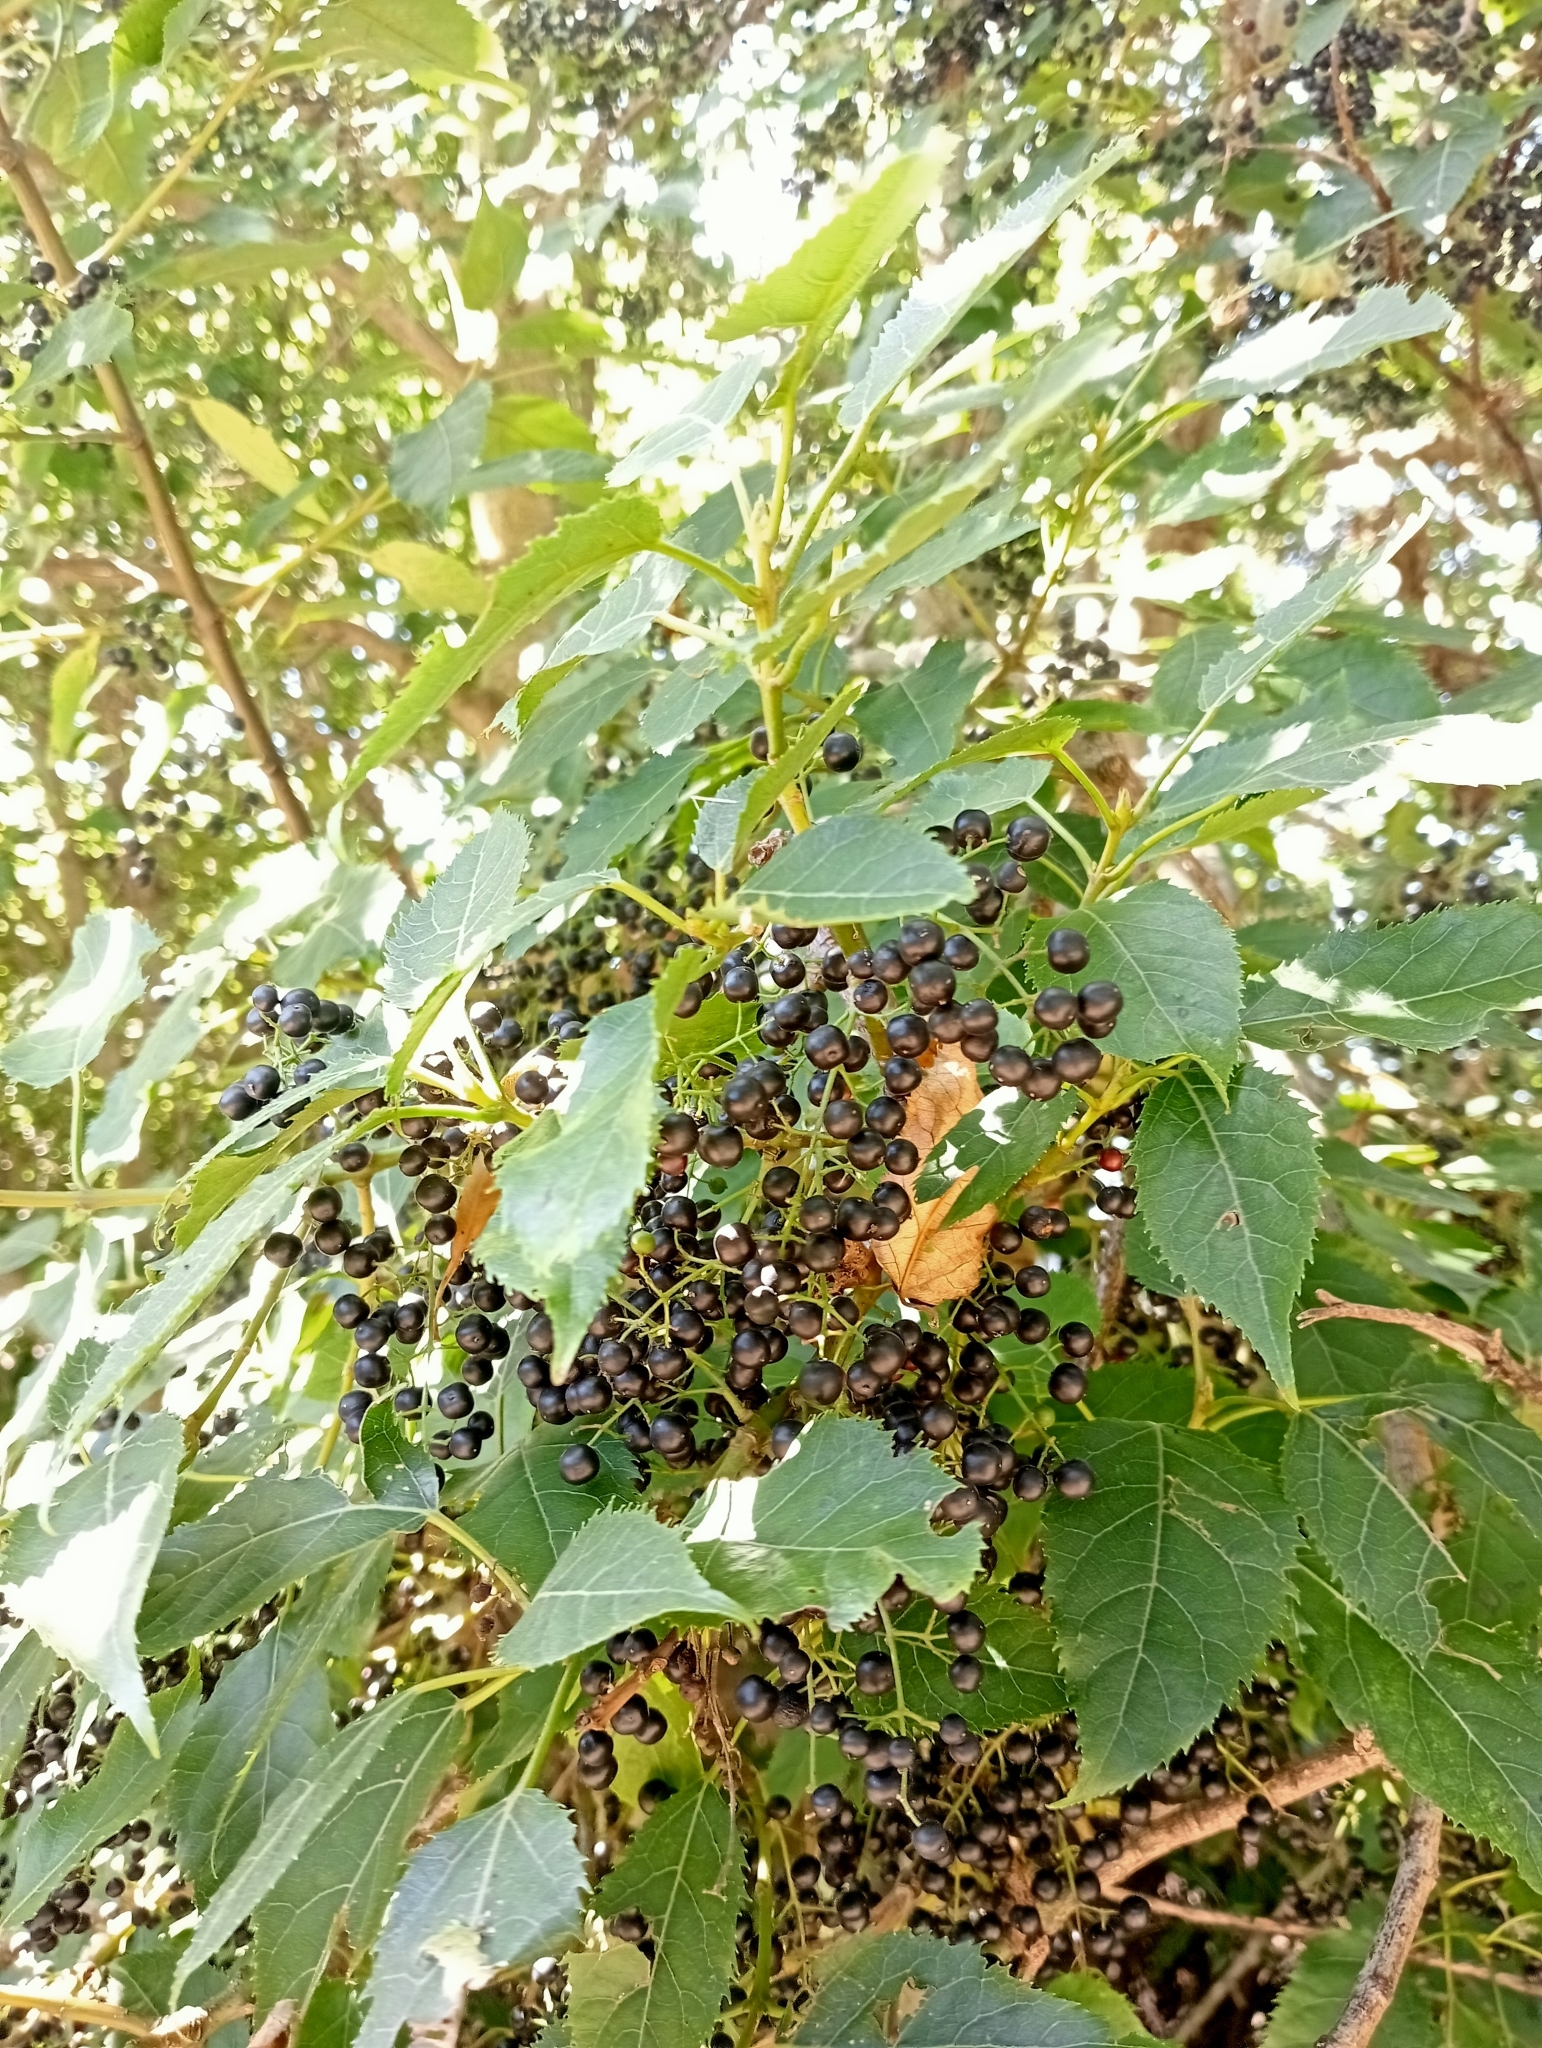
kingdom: Plantae
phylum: Tracheophyta
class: Magnoliopsida
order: Oxalidales
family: Elaeocarpaceae
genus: Aristotelia
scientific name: Aristotelia serrata
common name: New zealand wineberry
